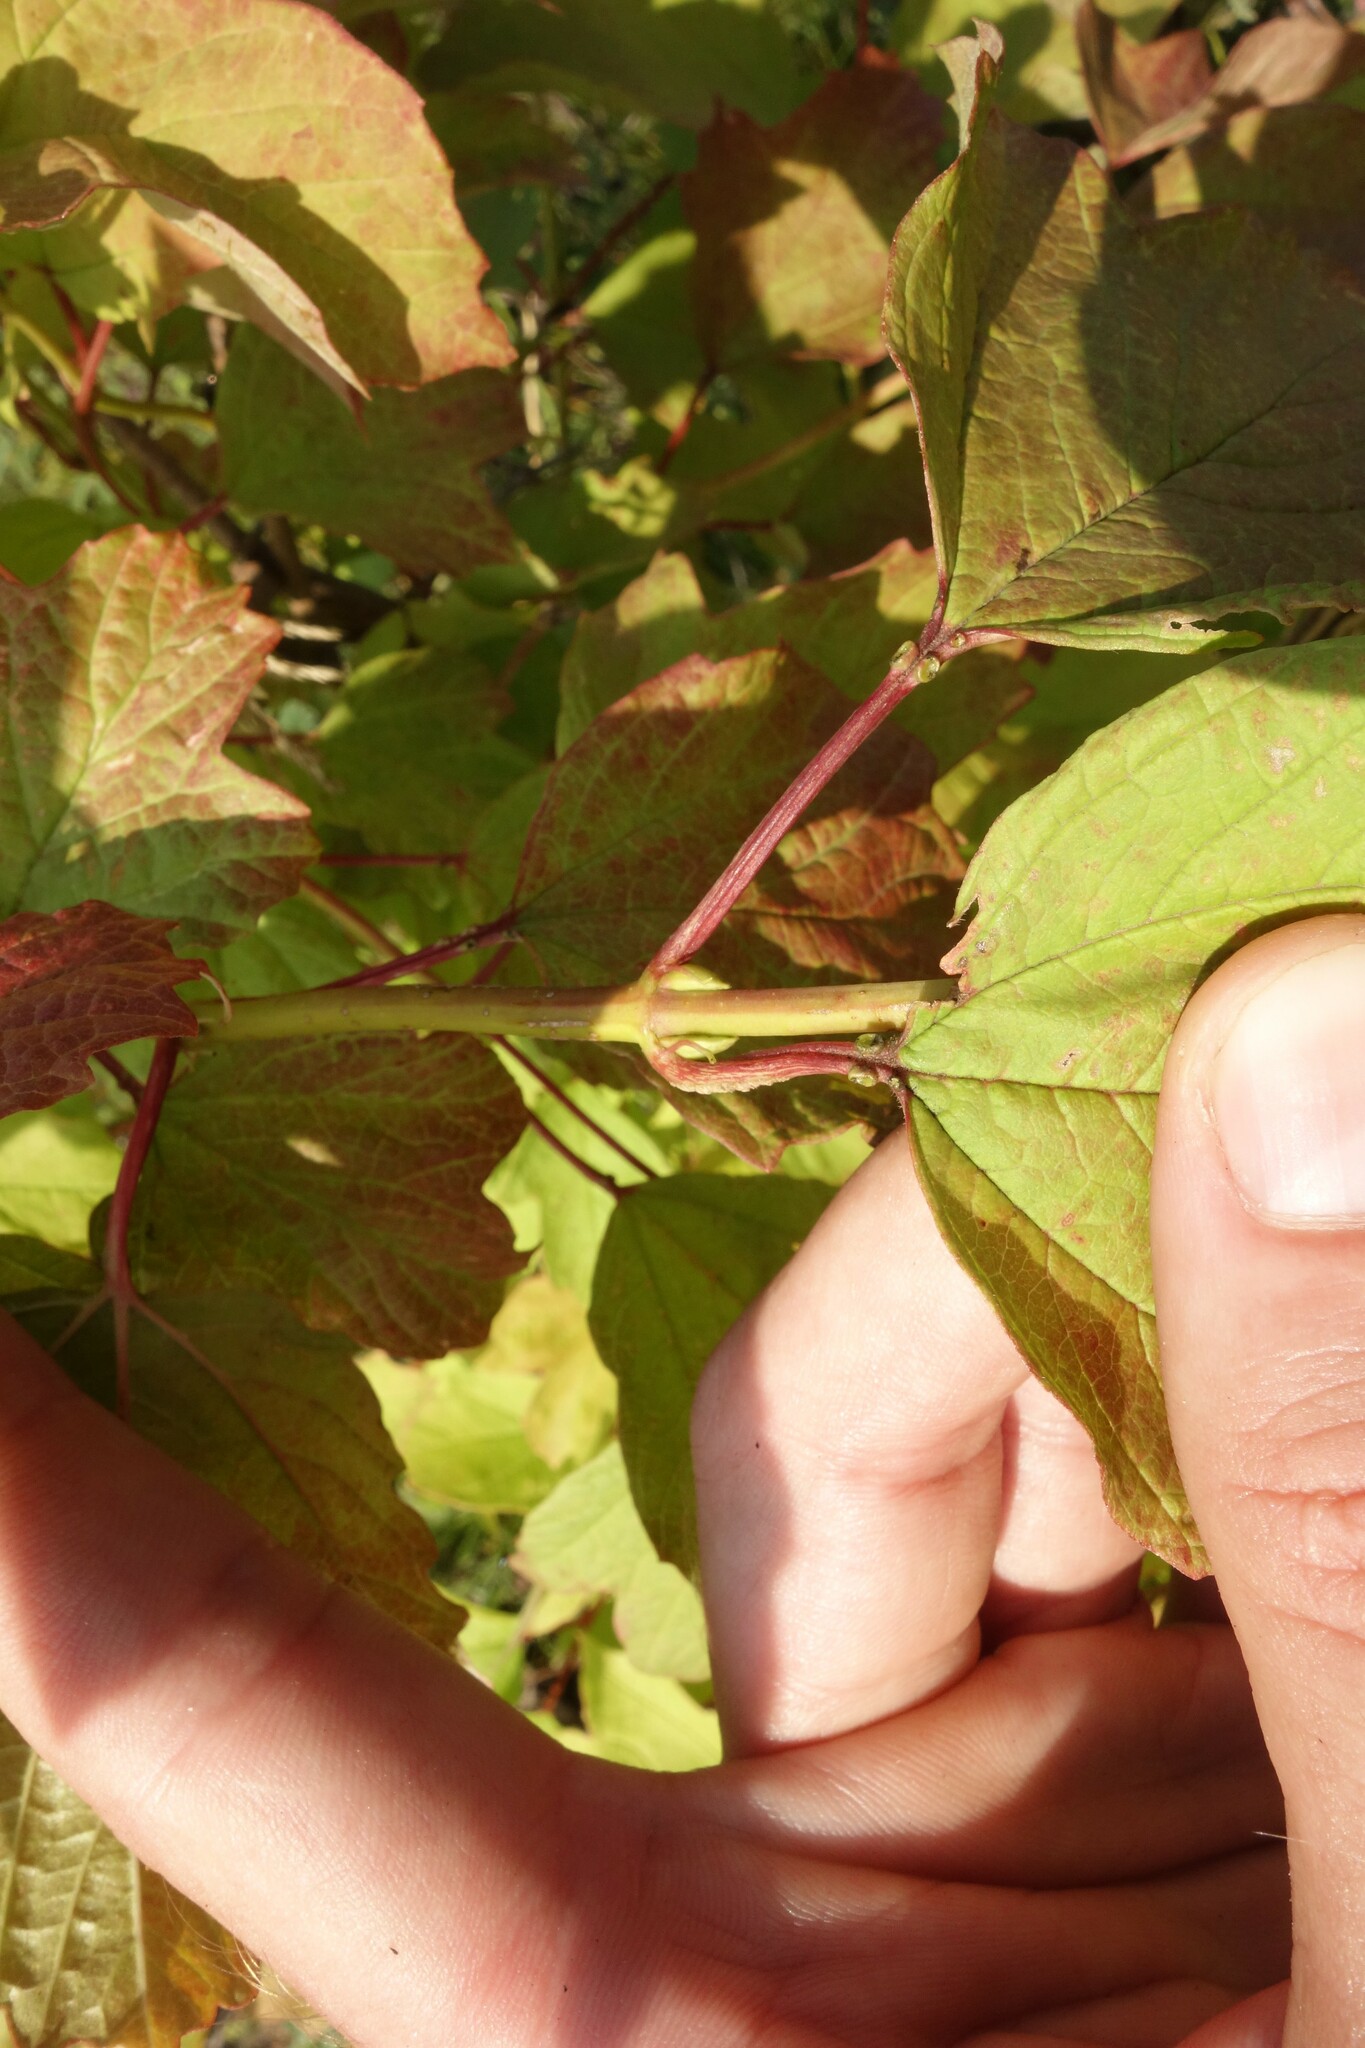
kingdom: Plantae
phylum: Tracheophyta
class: Magnoliopsida
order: Dipsacales
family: Viburnaceae
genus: Viburnum
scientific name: Viburnum opulus
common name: Guelder-rose
